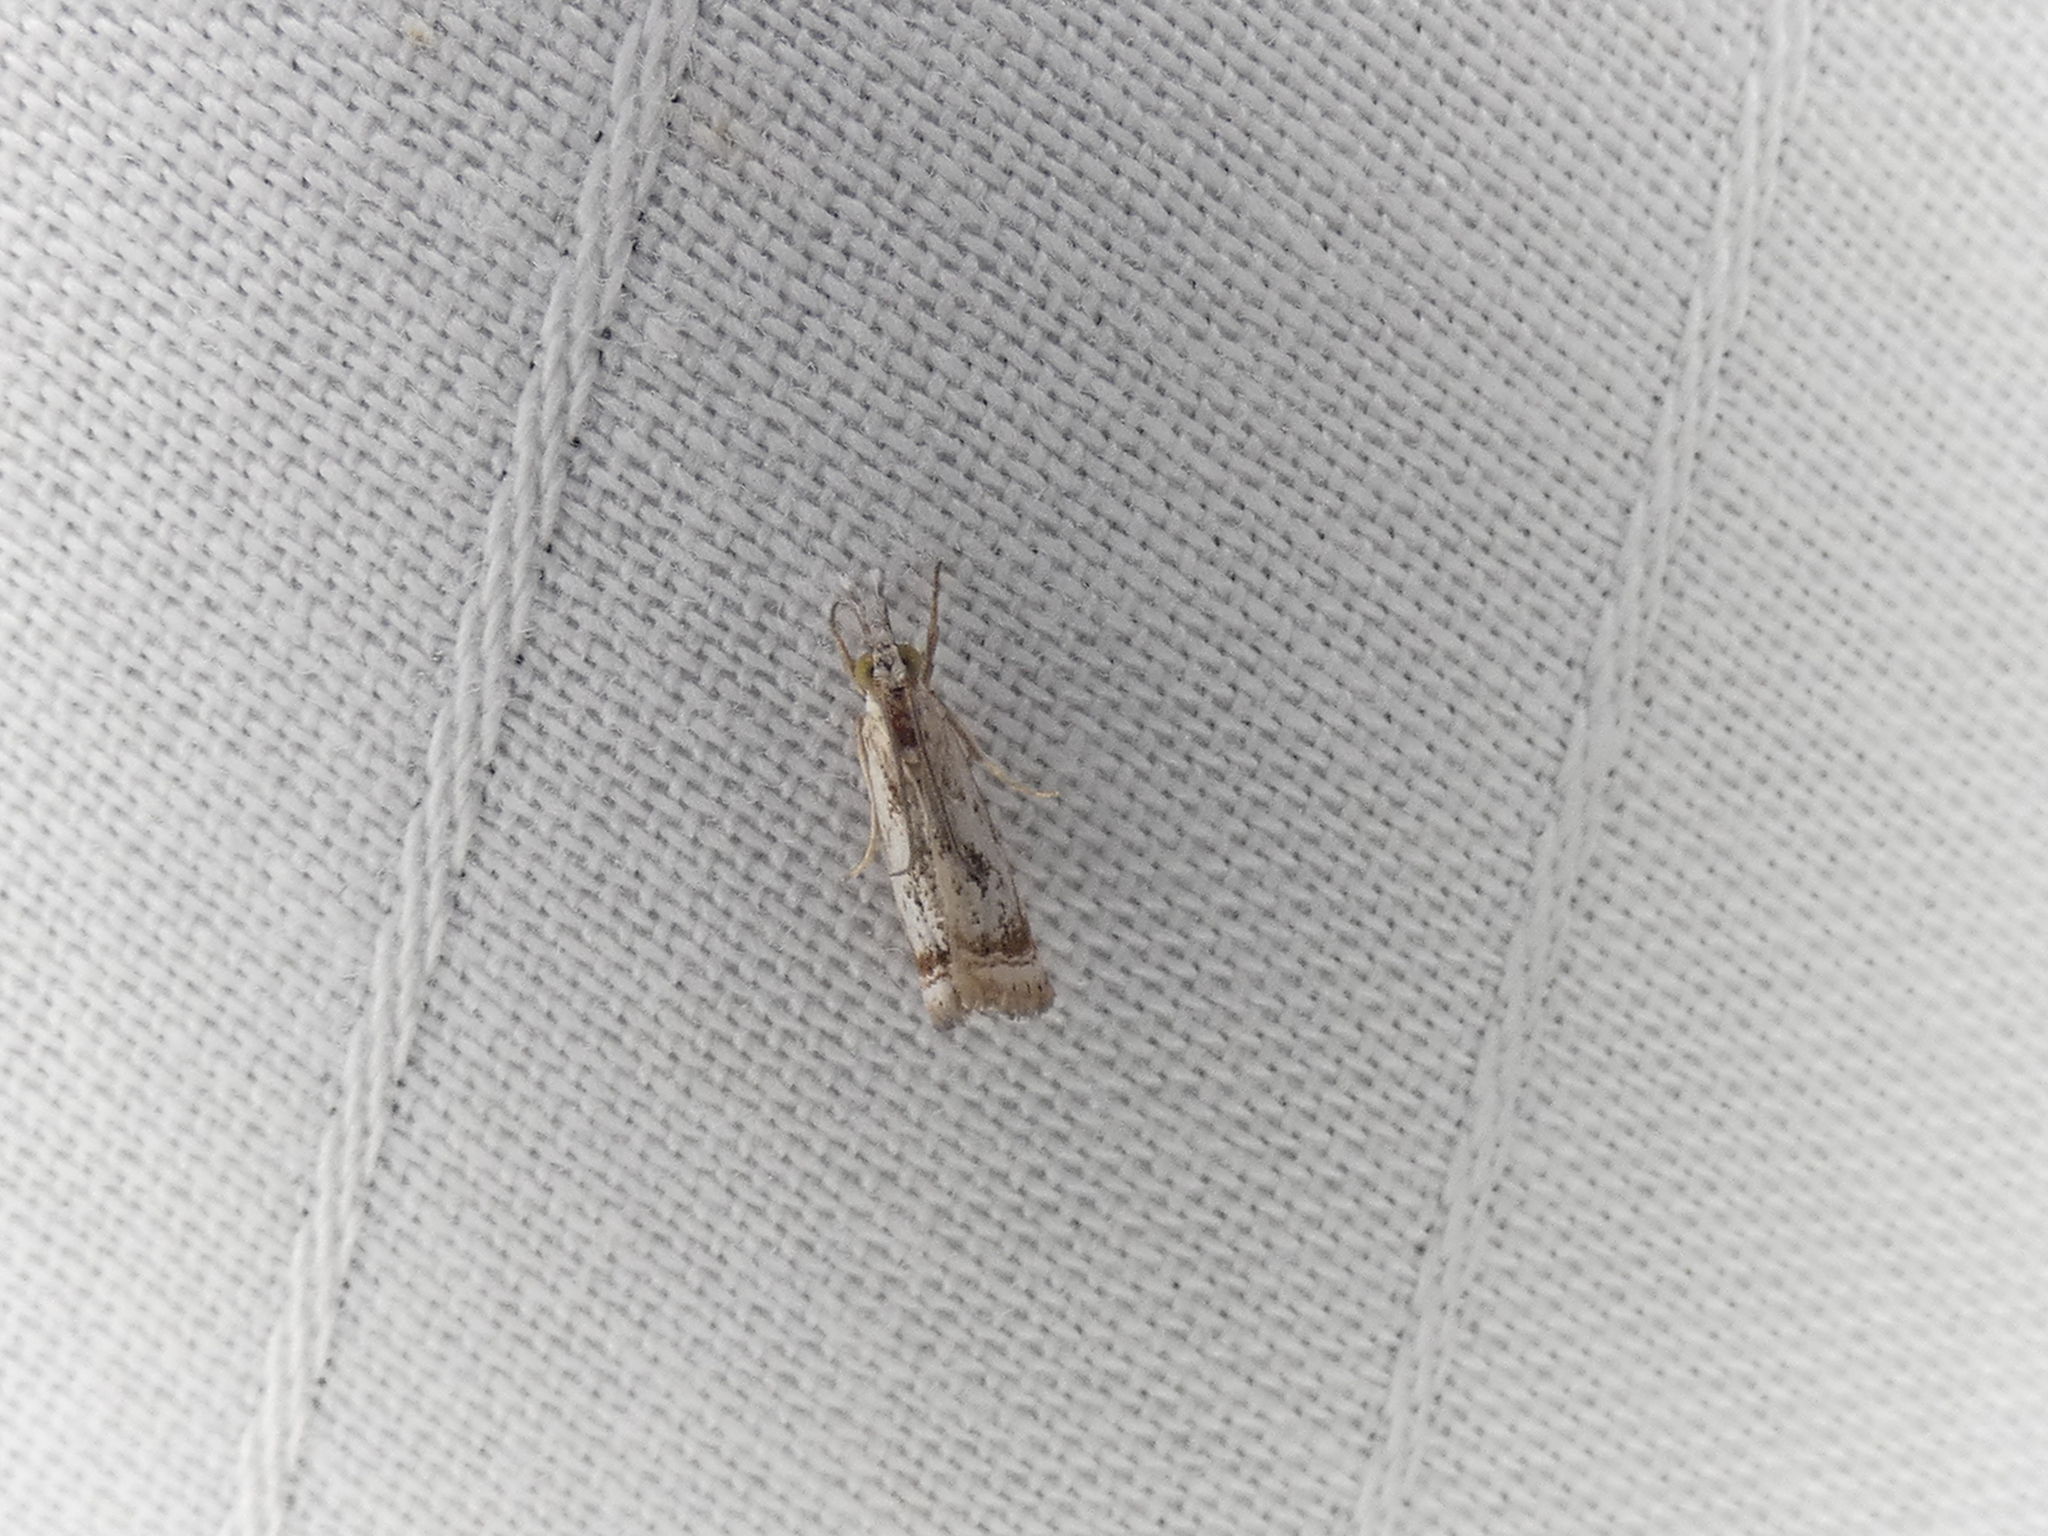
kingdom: Animalia
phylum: Arthropoda
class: Insecta
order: Lepidoptera
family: Crambidae
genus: Microcrambus
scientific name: Microcrambus elegans
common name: Elegant grass-veneer
